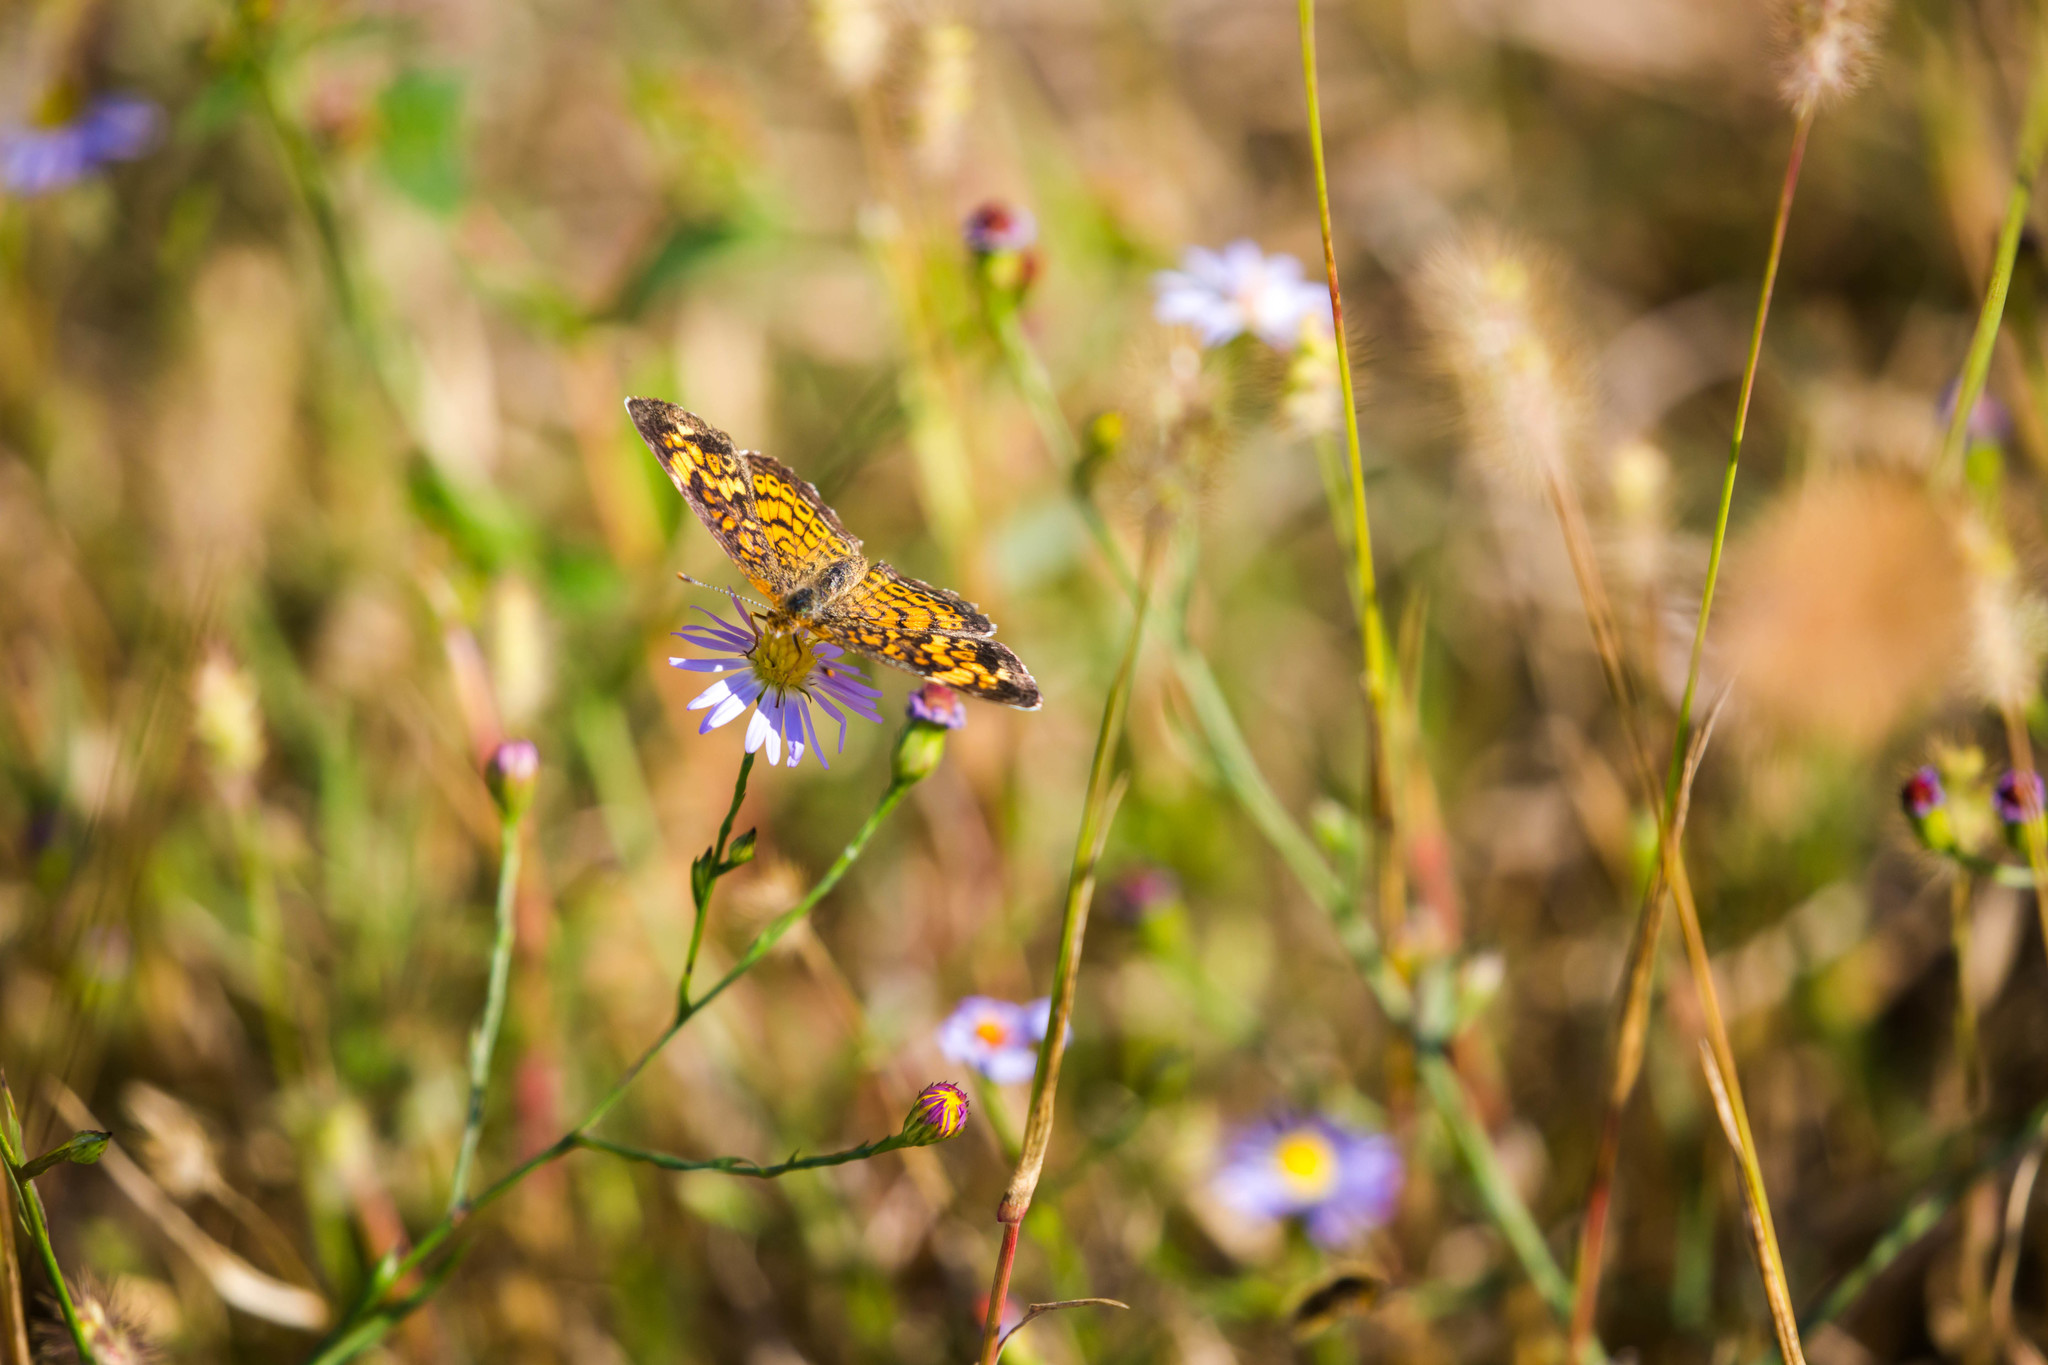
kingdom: Animalia
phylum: Arthropoda
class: Insecta
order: Lepidoptera
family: Nymphalidae
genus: Phyciodes
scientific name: Phyciodes tharos
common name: Pearl crescent
